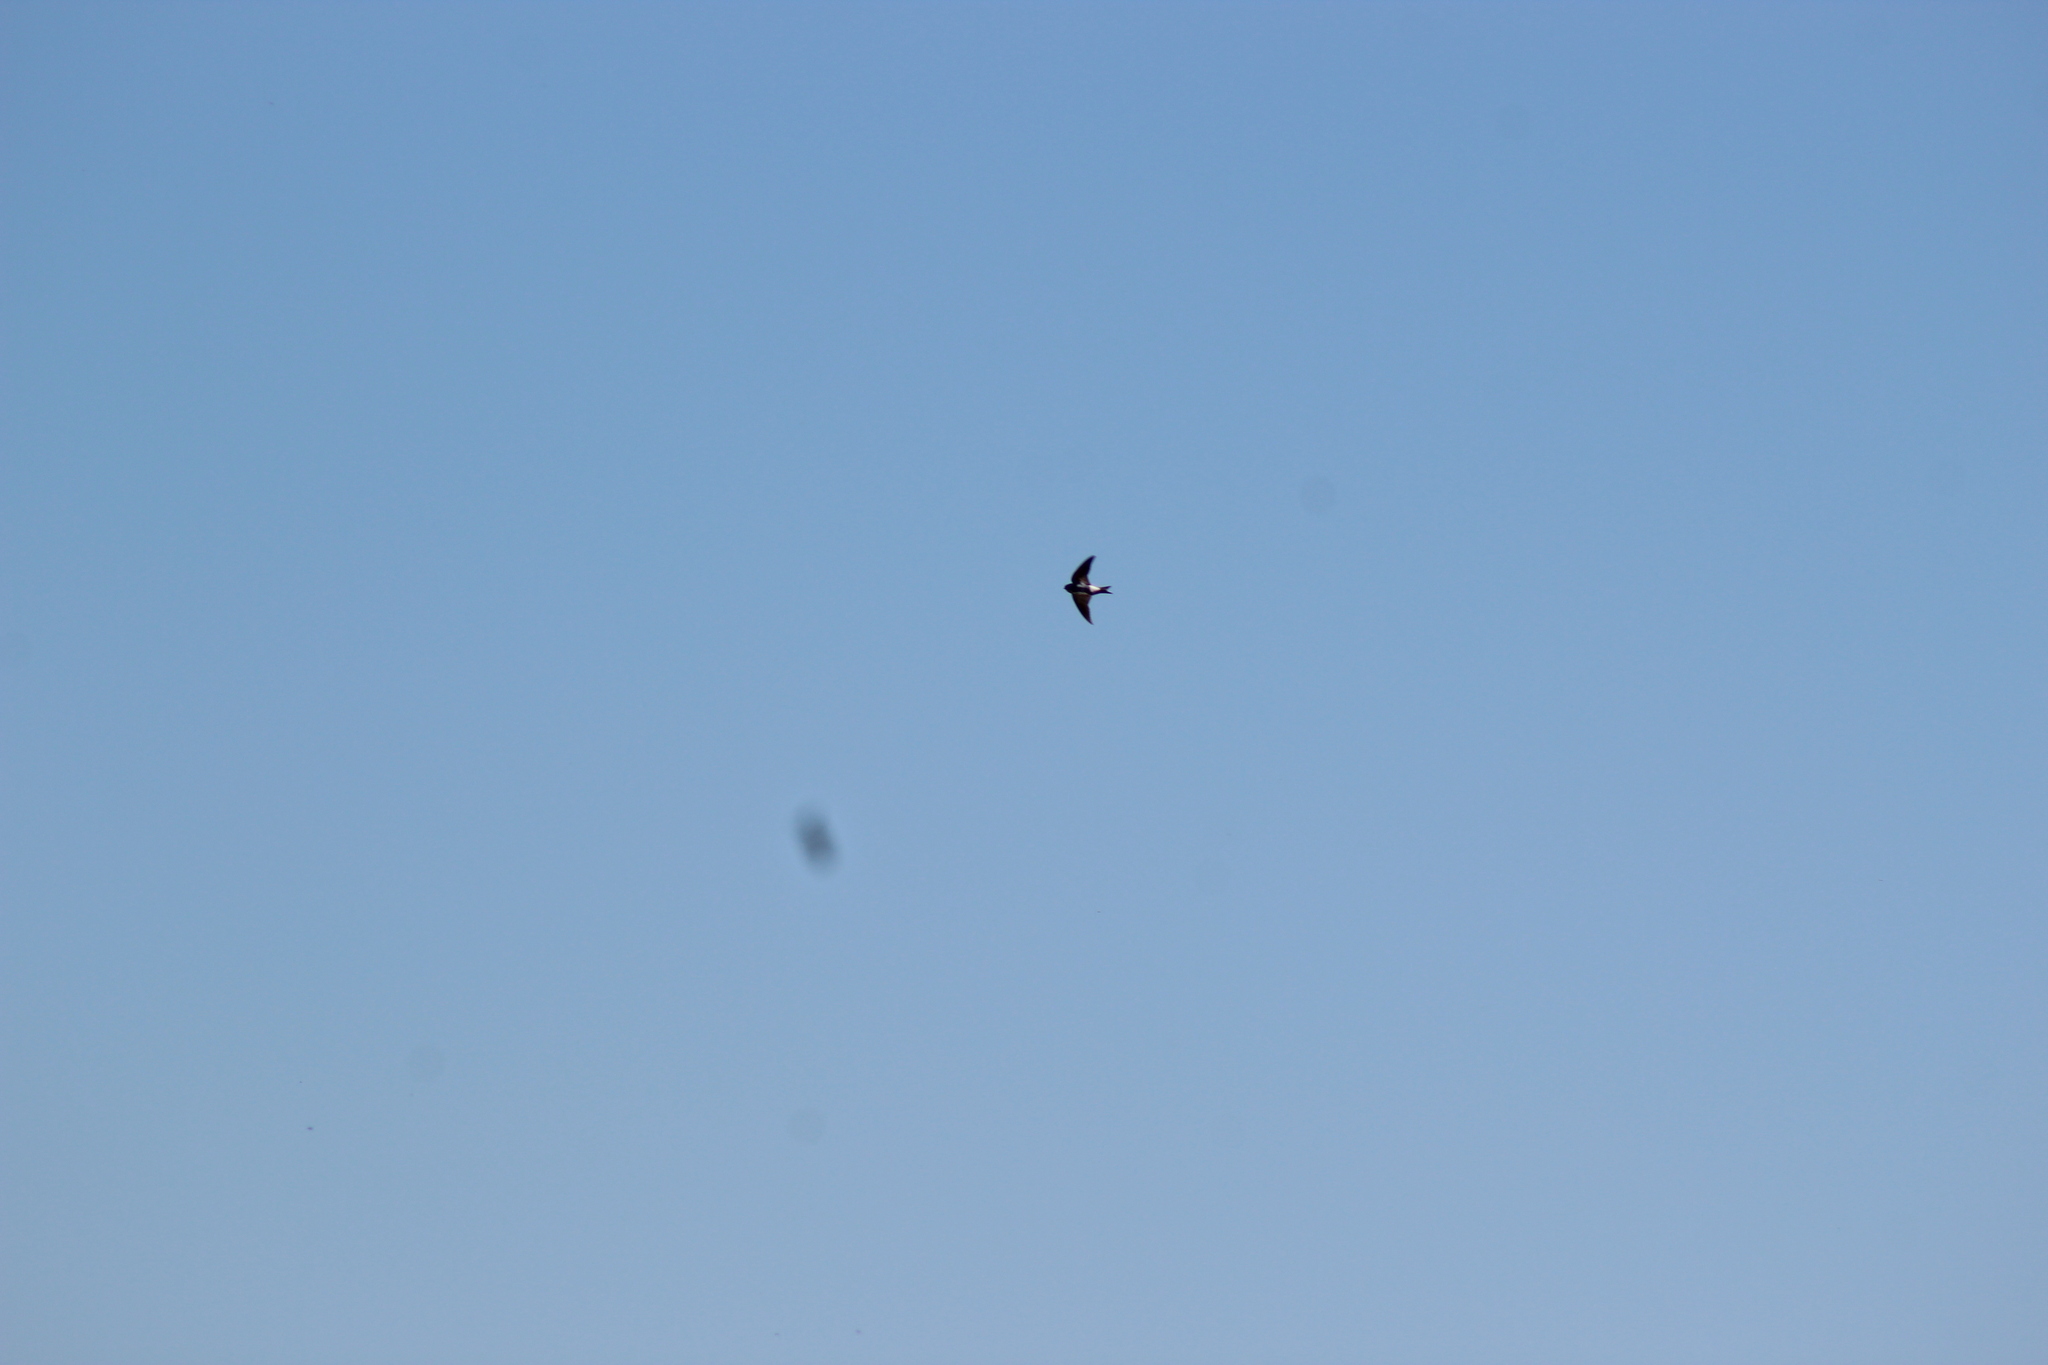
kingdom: Animalia
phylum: Chordata
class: Aves
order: Passeriformes
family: Hirundinidae
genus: Delichon
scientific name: Delichon urbicum
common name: Common house martin
